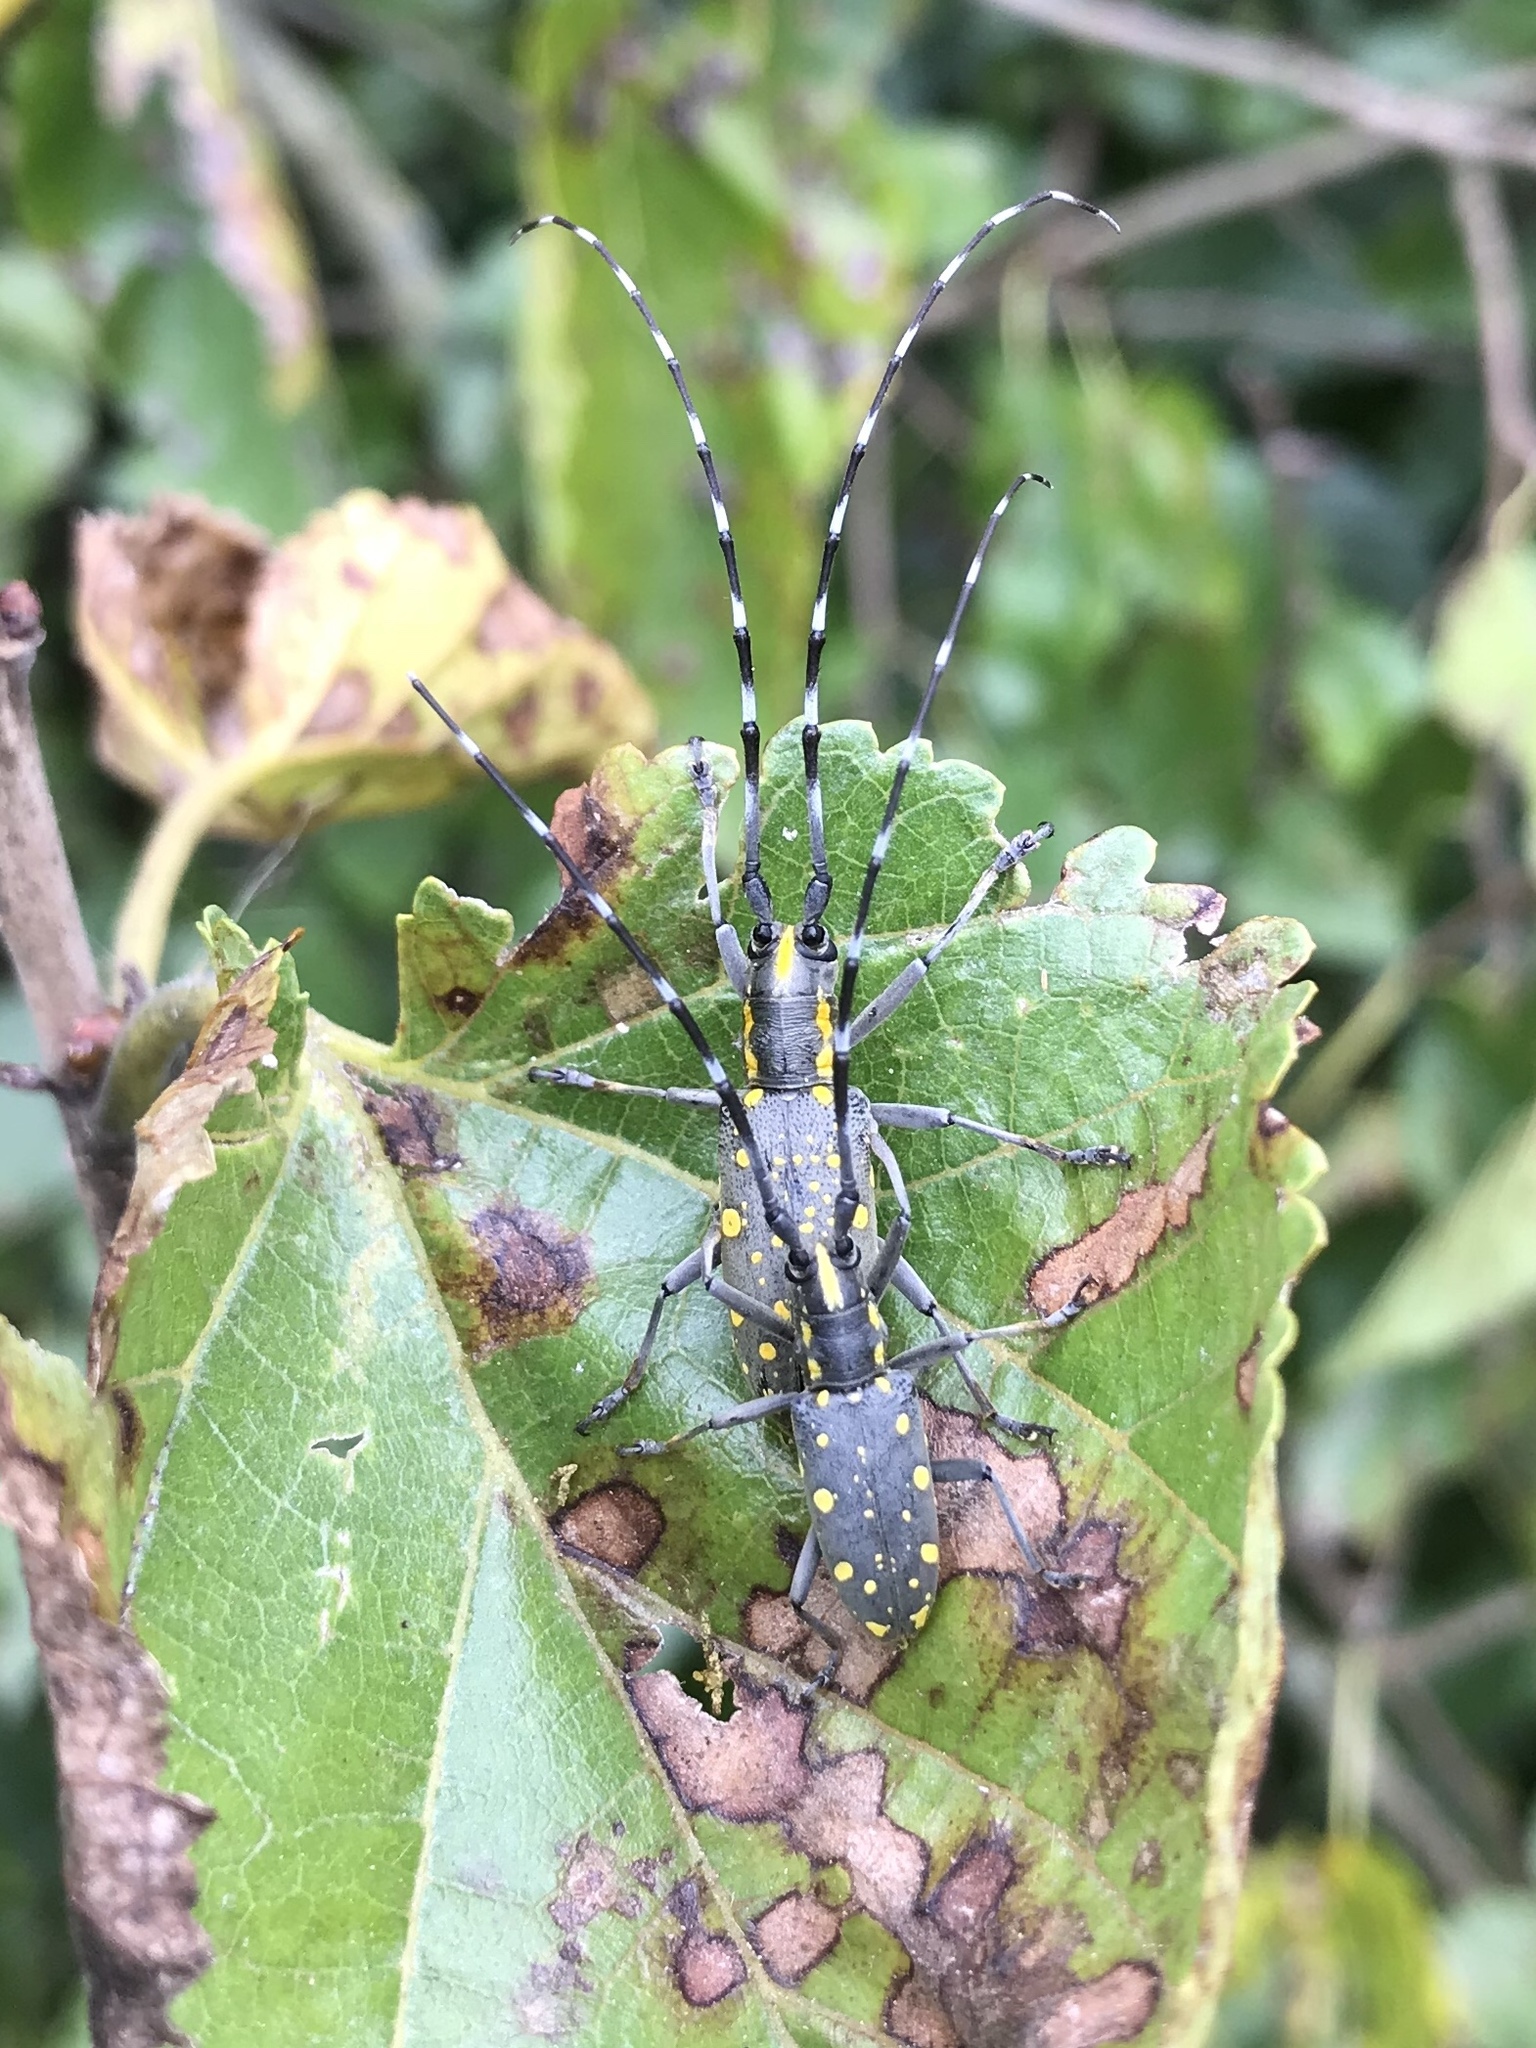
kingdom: Animalia
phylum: Arthropoda
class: Insecta
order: Coleoptera
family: Cerambycidae
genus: Psacothea
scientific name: Psacothea hilaris
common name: Yellow-spotted longicorn beetle
